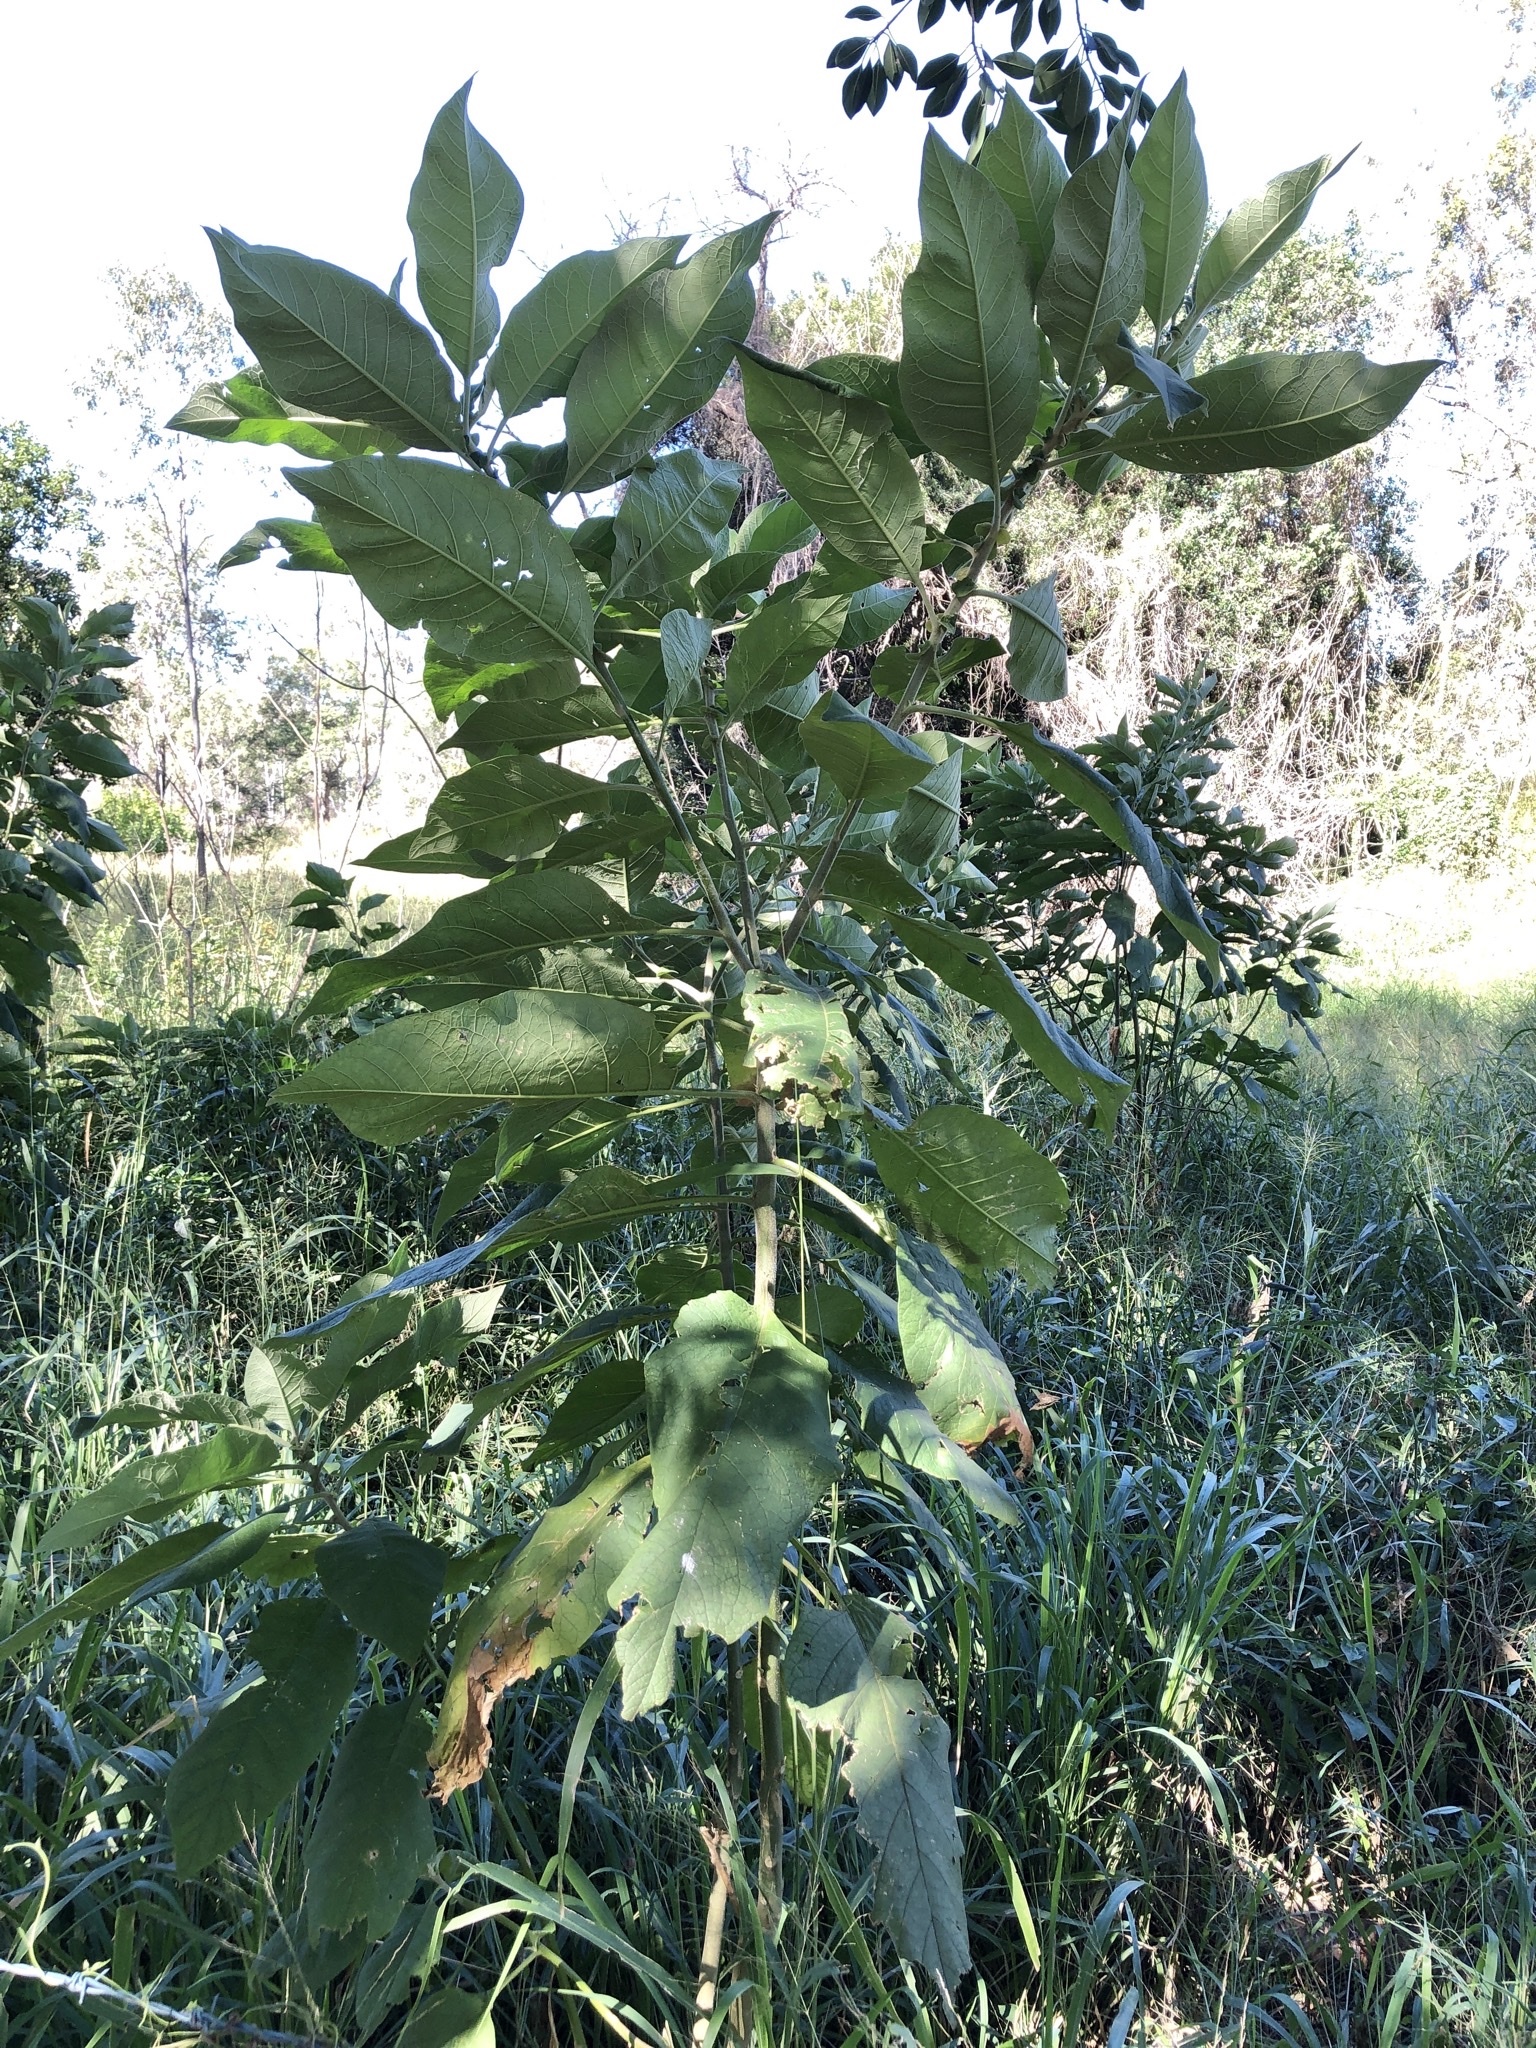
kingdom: Plantae
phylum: Tracheophyta
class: Magnoliopsida
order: Solanales
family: Solanaceae
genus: Solanum
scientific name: Solanum mauritianum
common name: Earleaf nightshade
